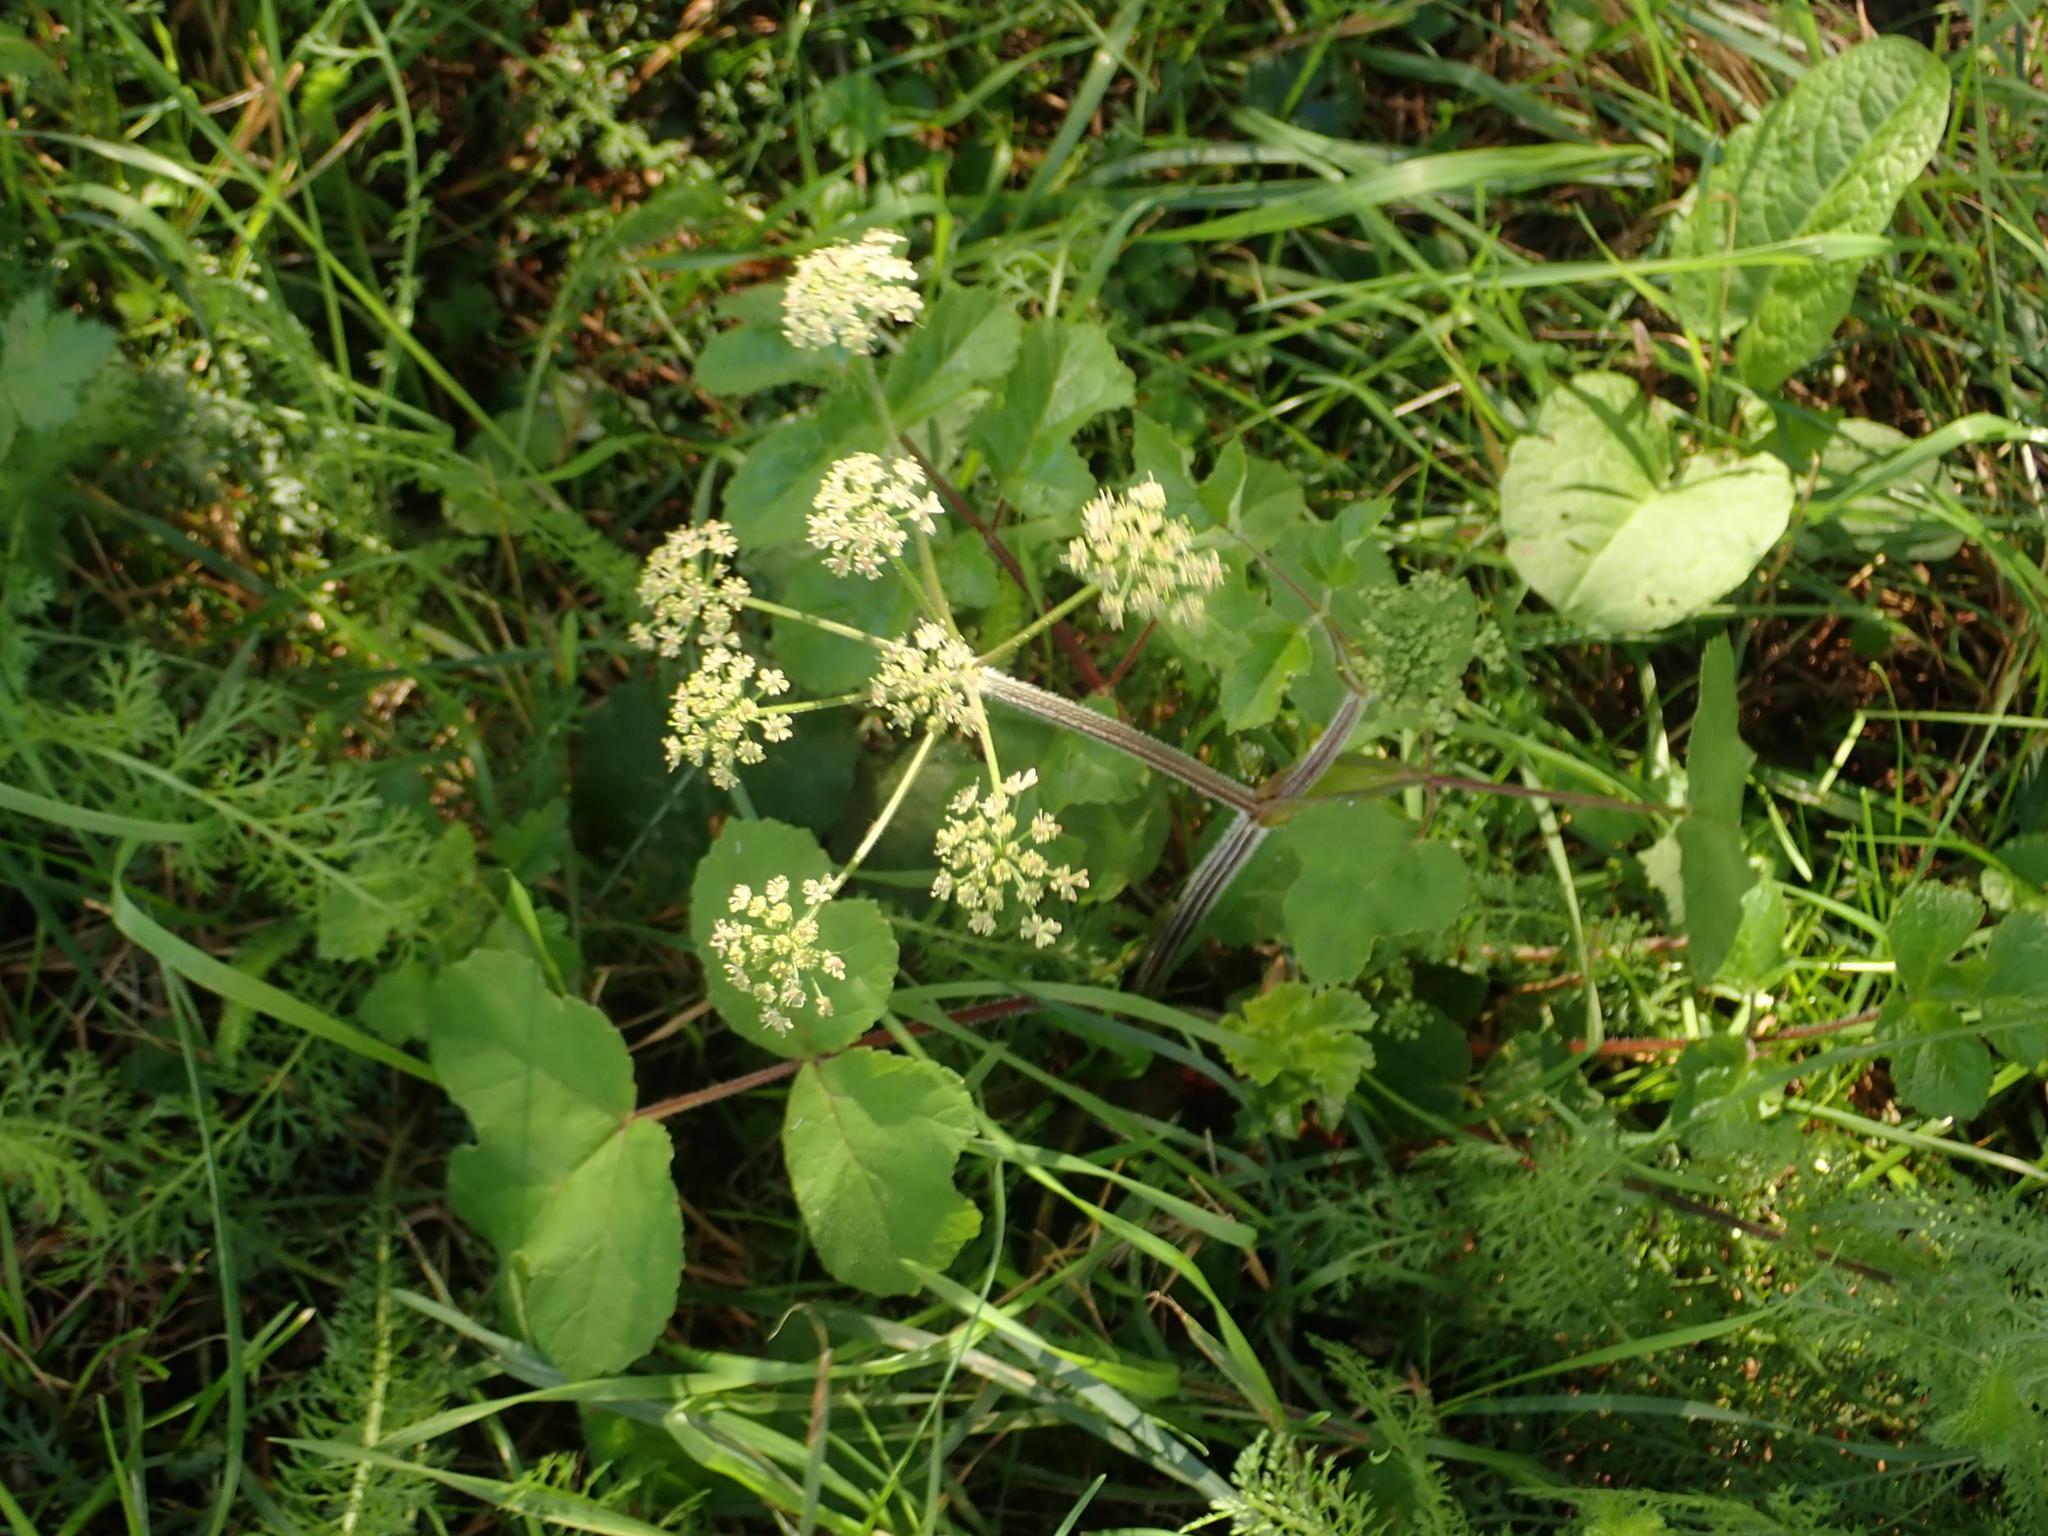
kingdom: Plantae
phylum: Tracheophyta
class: Magnoliopsida
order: Apiales
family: Apiaceae
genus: Heracleum
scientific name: Heracleum sphondylium
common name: Hogweed
